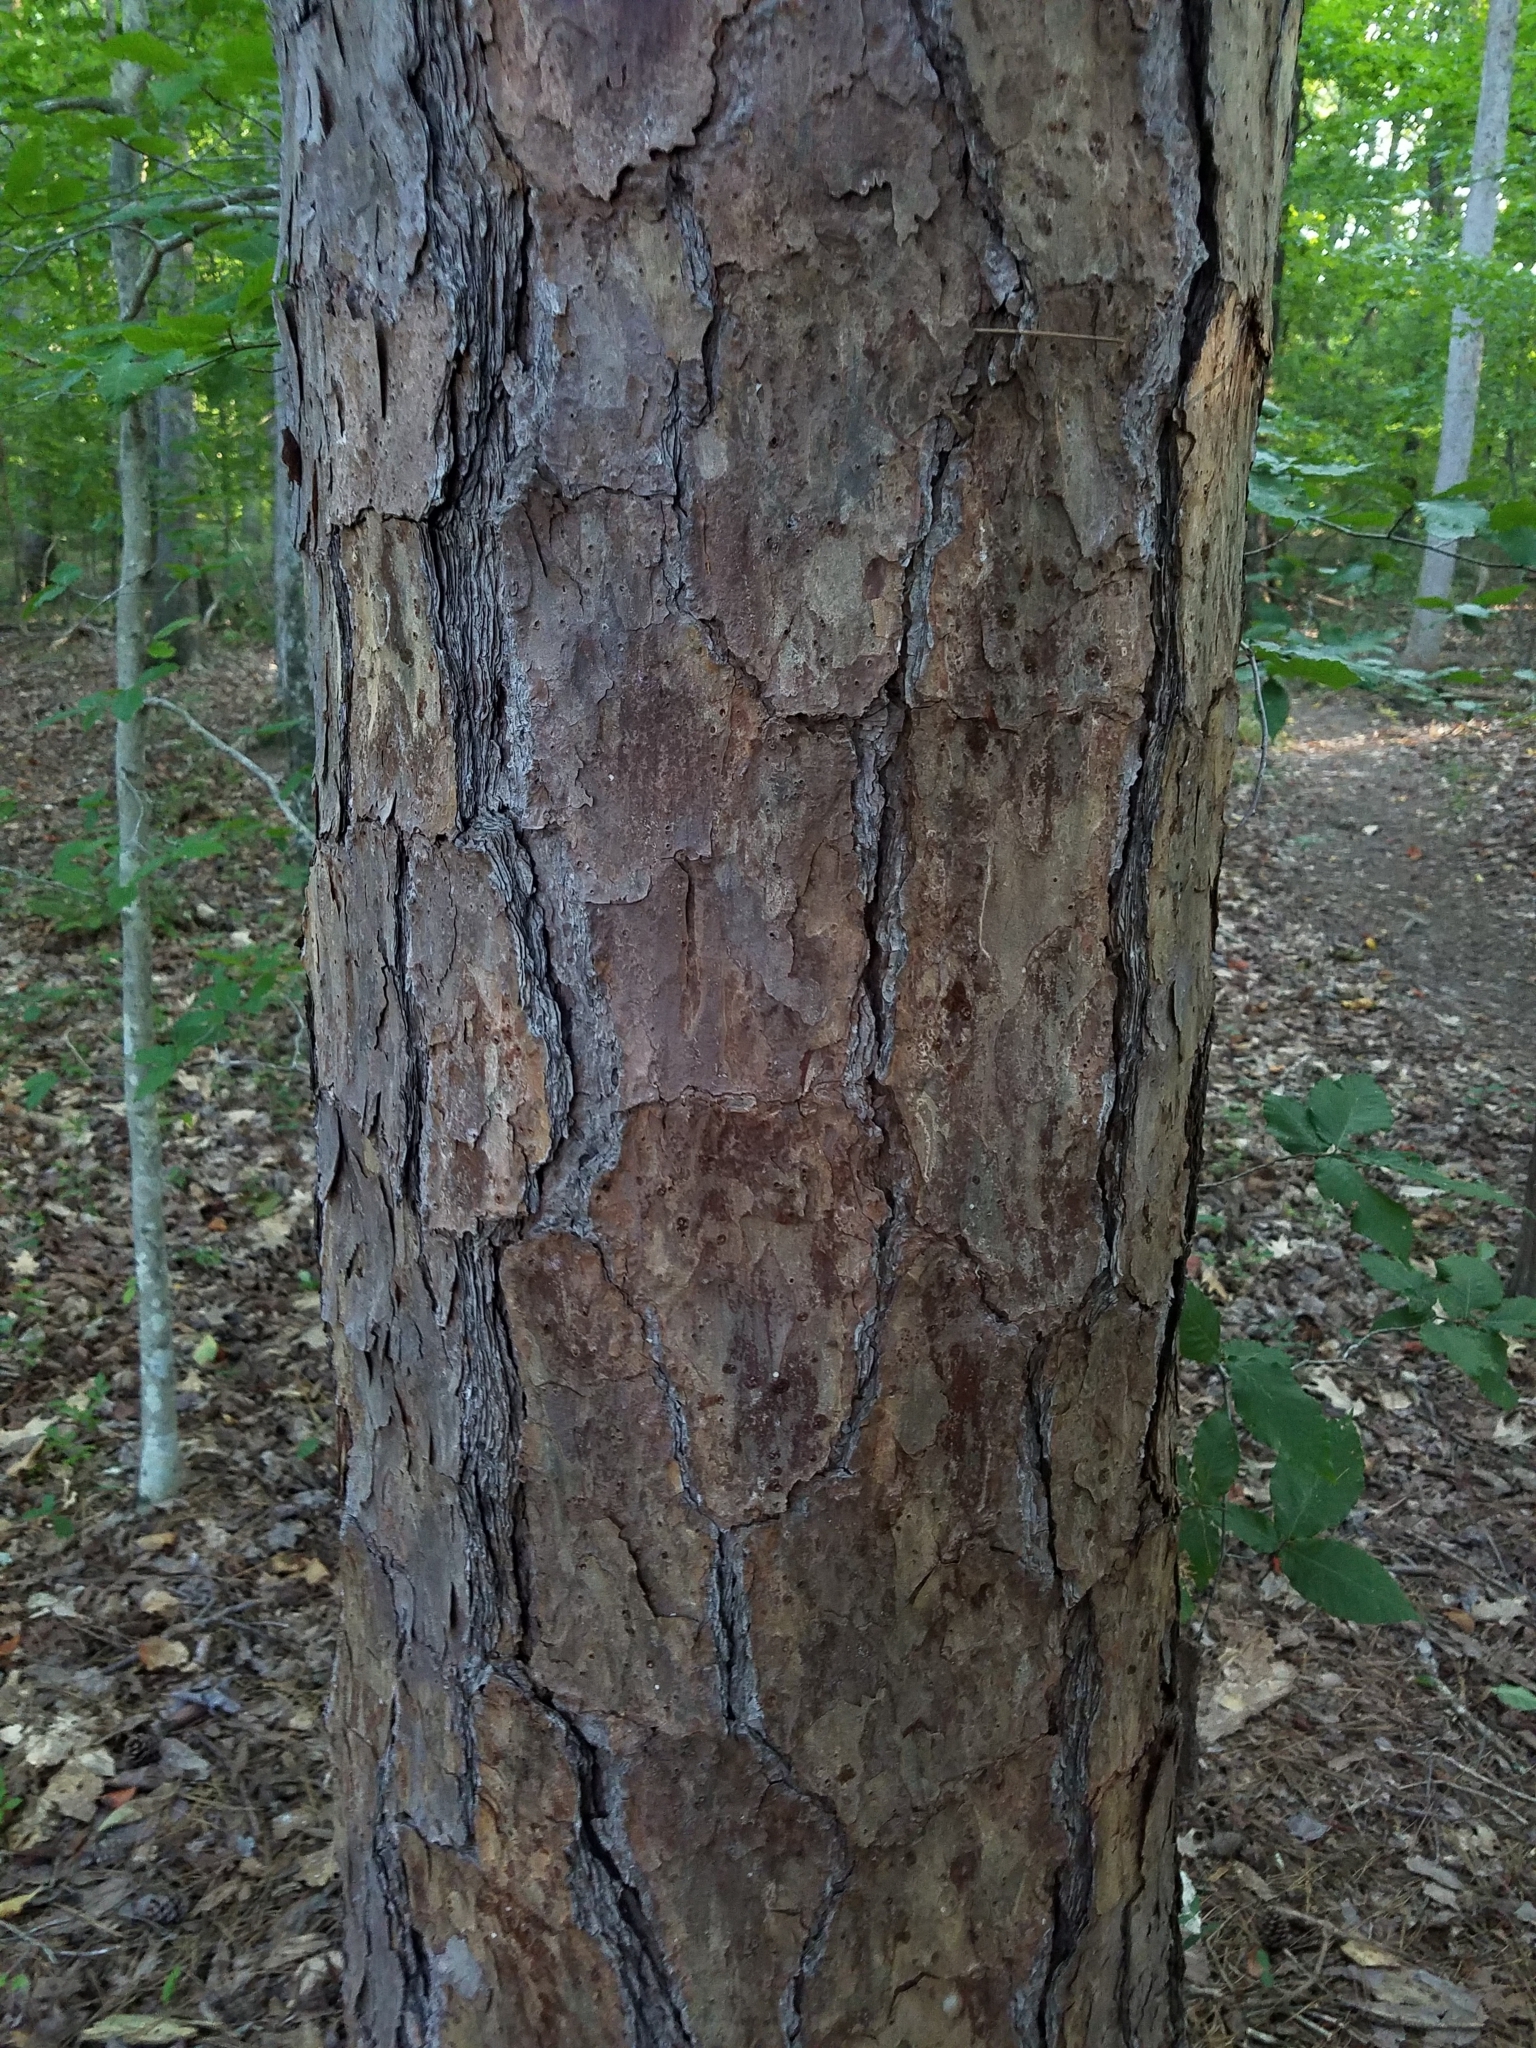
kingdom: Plantae
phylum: Tracheophyta
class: Pinopsida
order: Pinales
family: Pinaceae
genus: Pinus
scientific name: Pinus echinata
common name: Shortleaf pine
